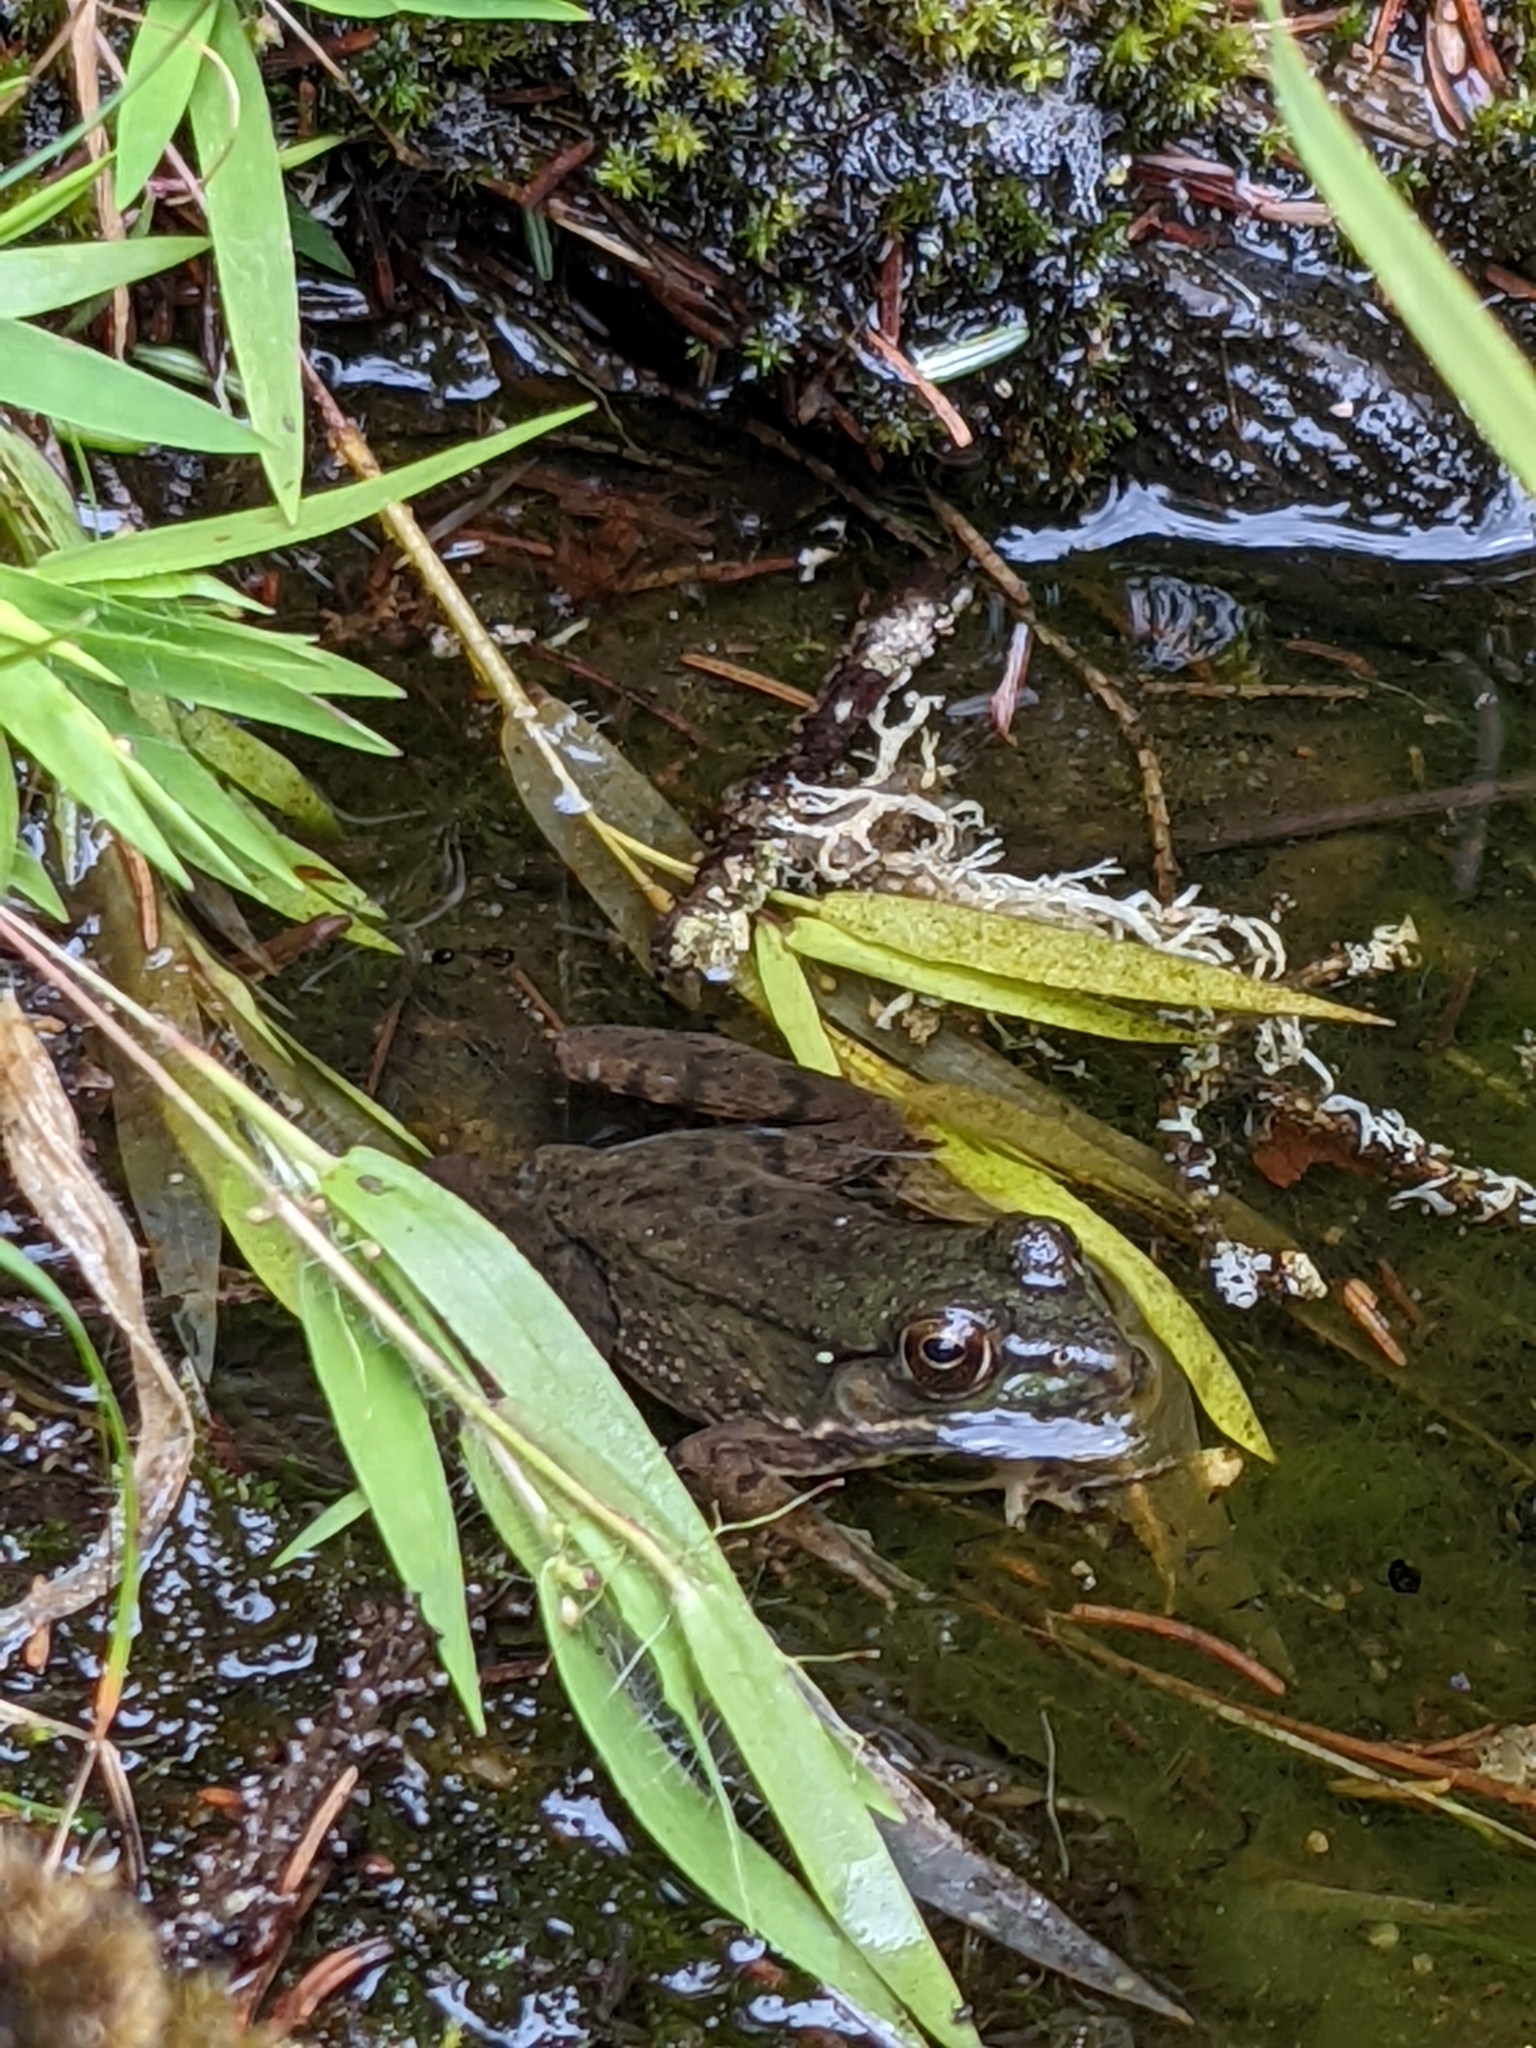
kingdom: Animalia
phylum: Chordata
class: Amphibia
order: Anura
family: Ranidae
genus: Lithobates
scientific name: Lithobates clamitans
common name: Green frog
